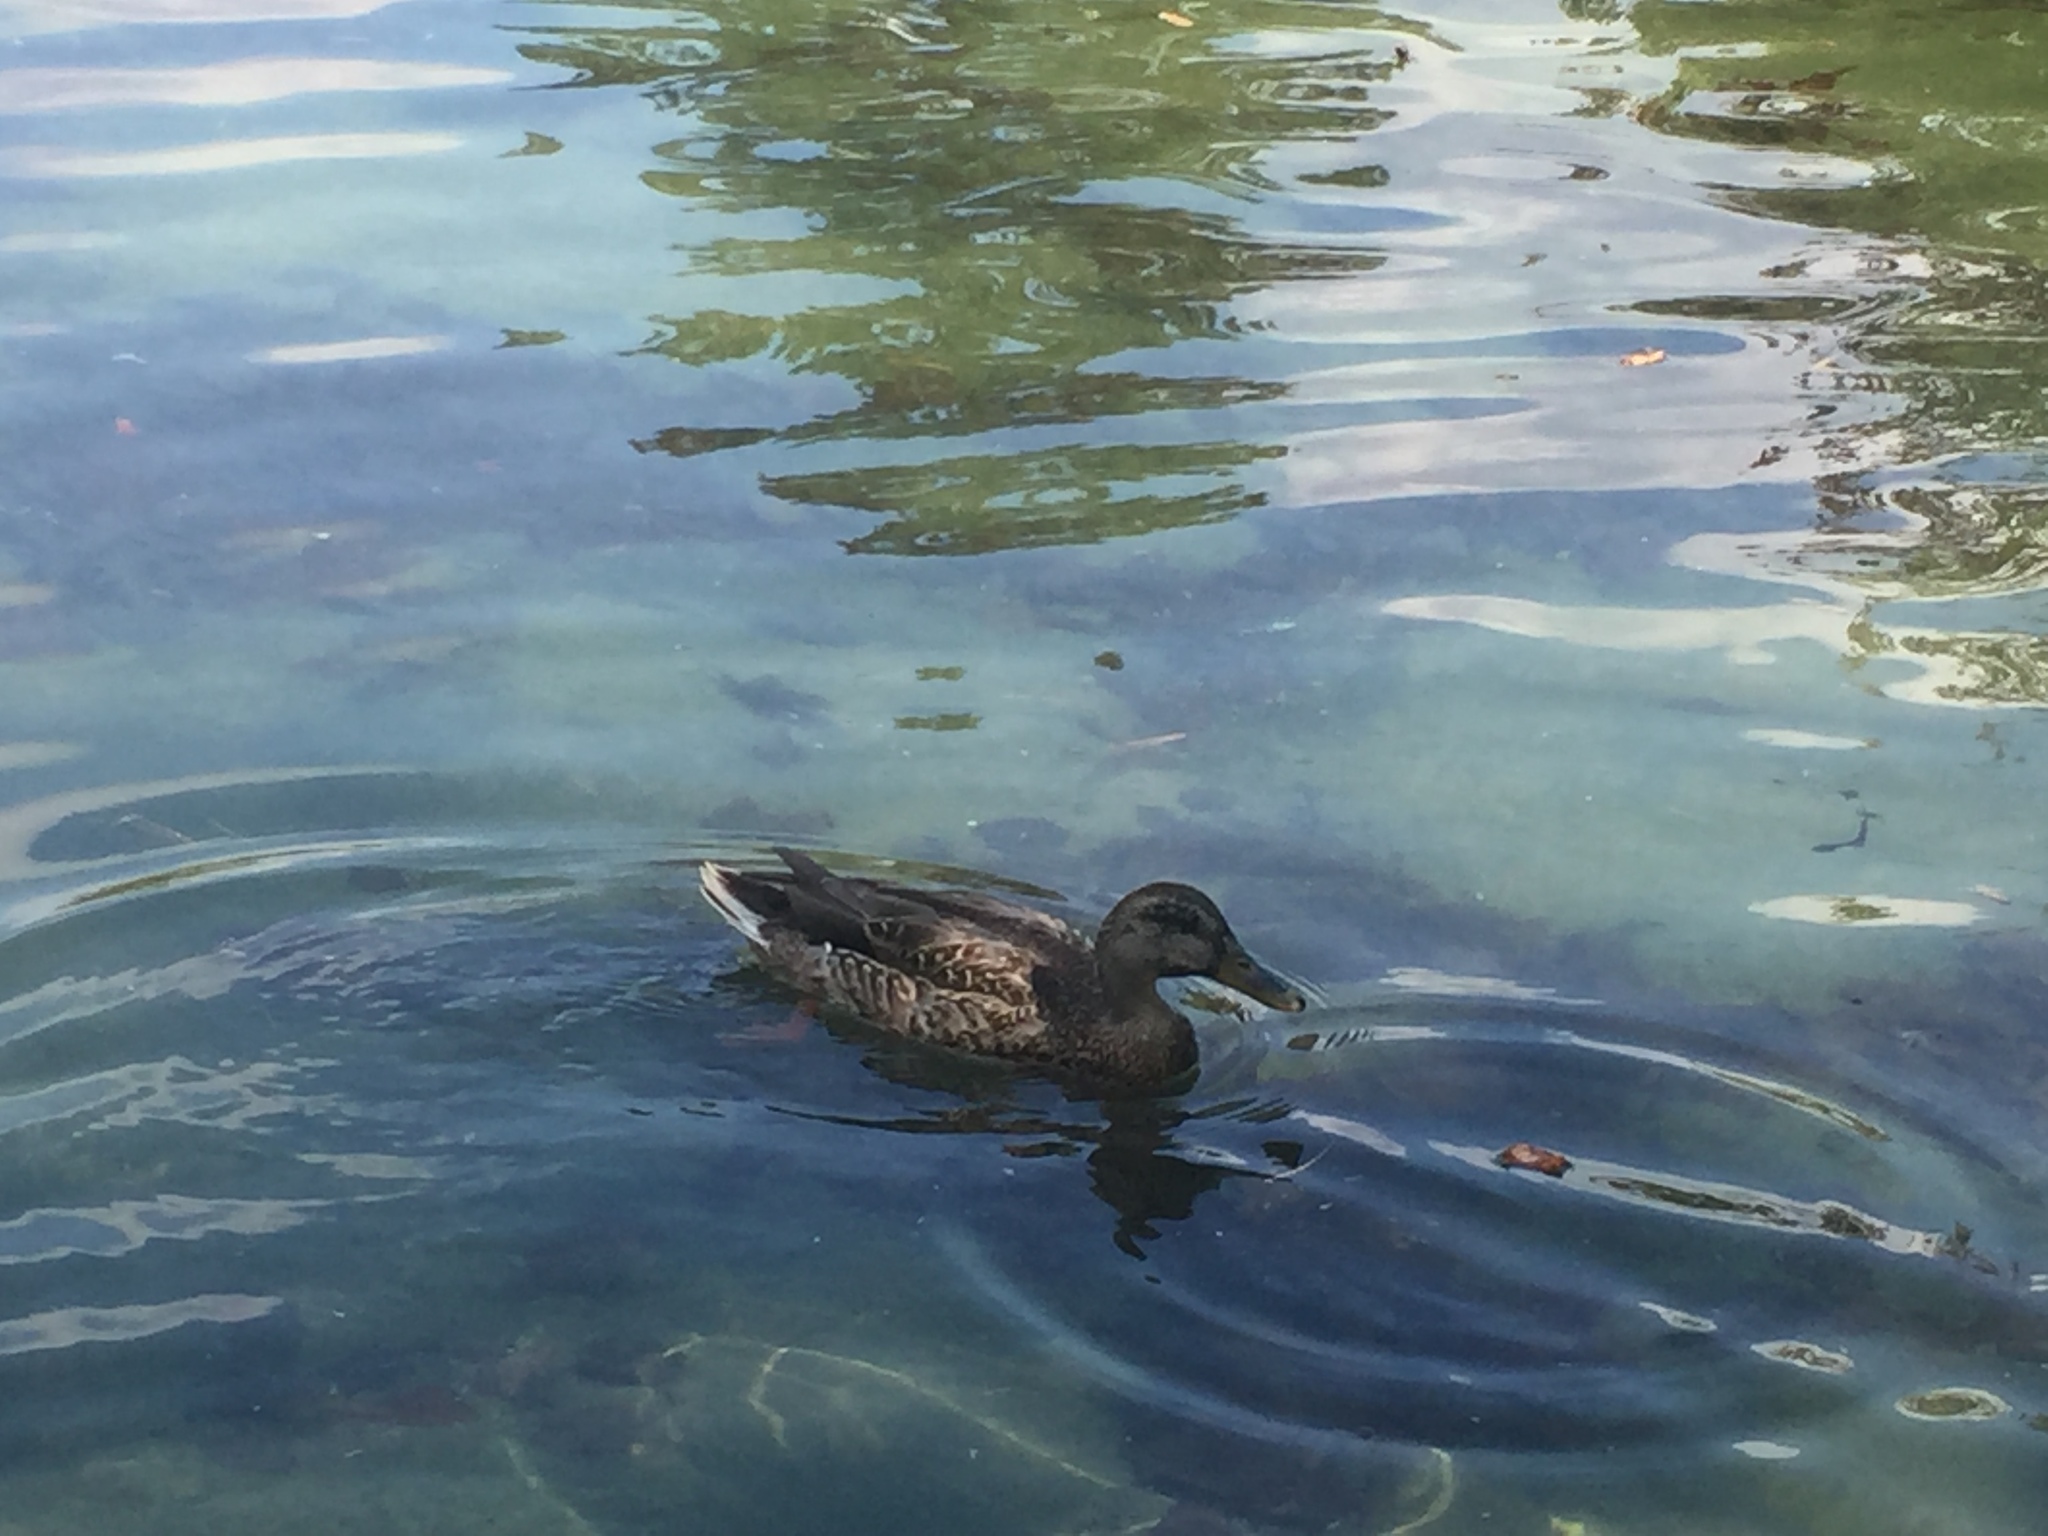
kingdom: Animalia
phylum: Chordata
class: Aves
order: Anseriformes
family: Anatidae
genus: Anas
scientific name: Anas platyrhynchos
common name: Mallard
